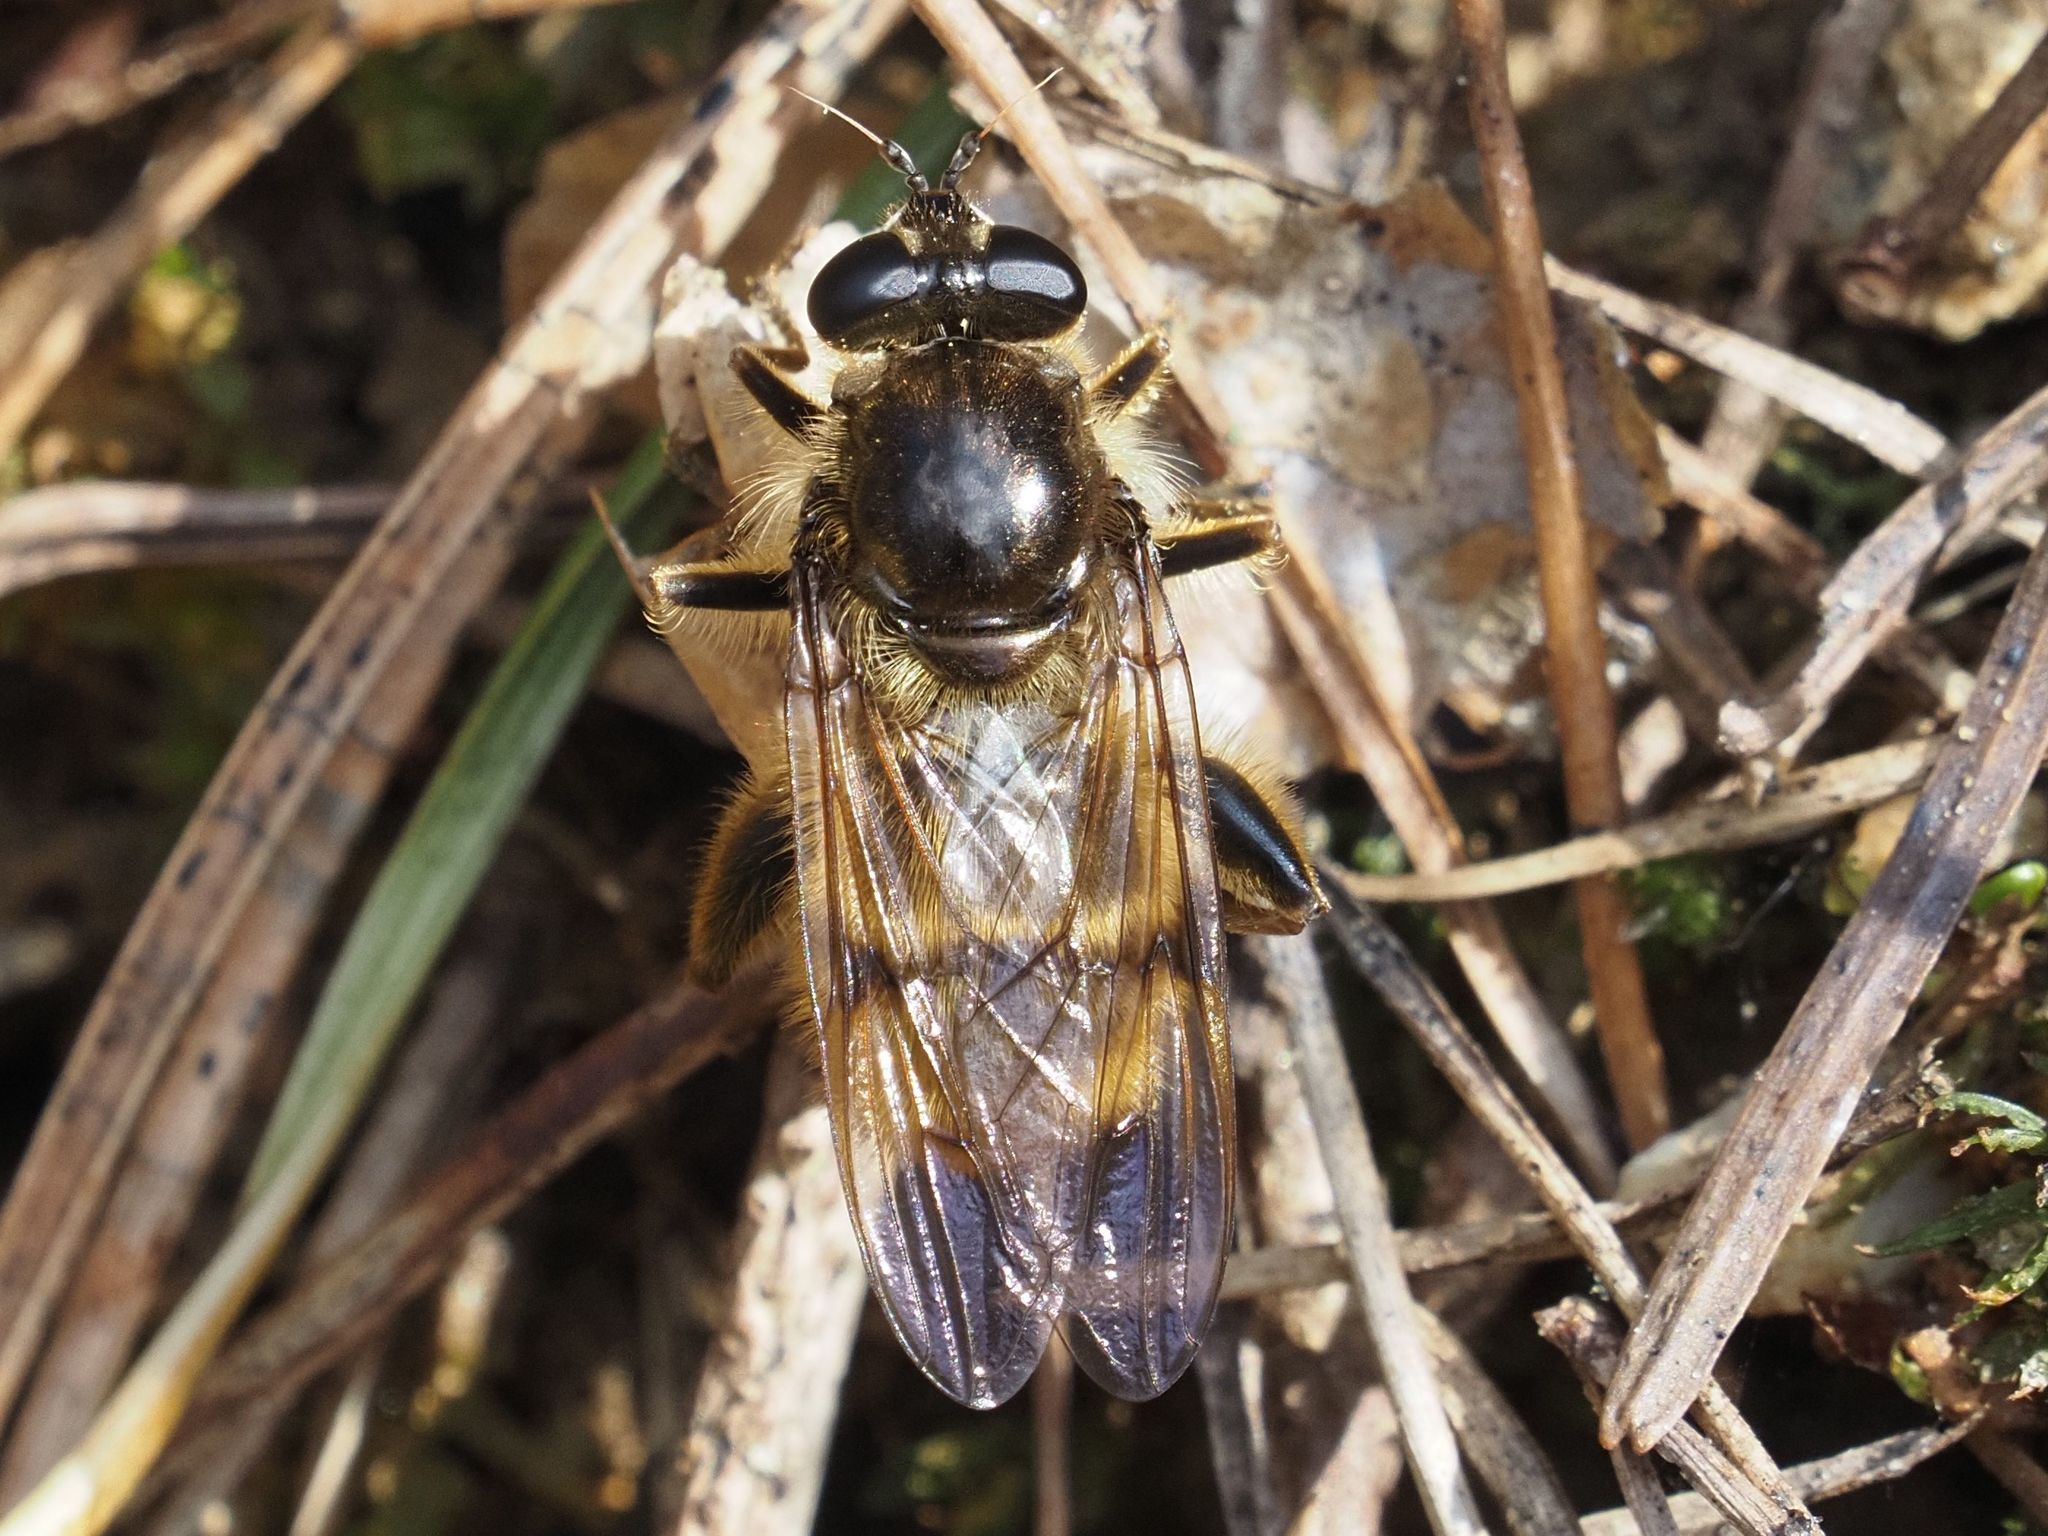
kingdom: Animalia
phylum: Arthropoda
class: Insecta
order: Diptera
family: Syrphidae
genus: Brachypalpus
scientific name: Brachypalpus chrysites
